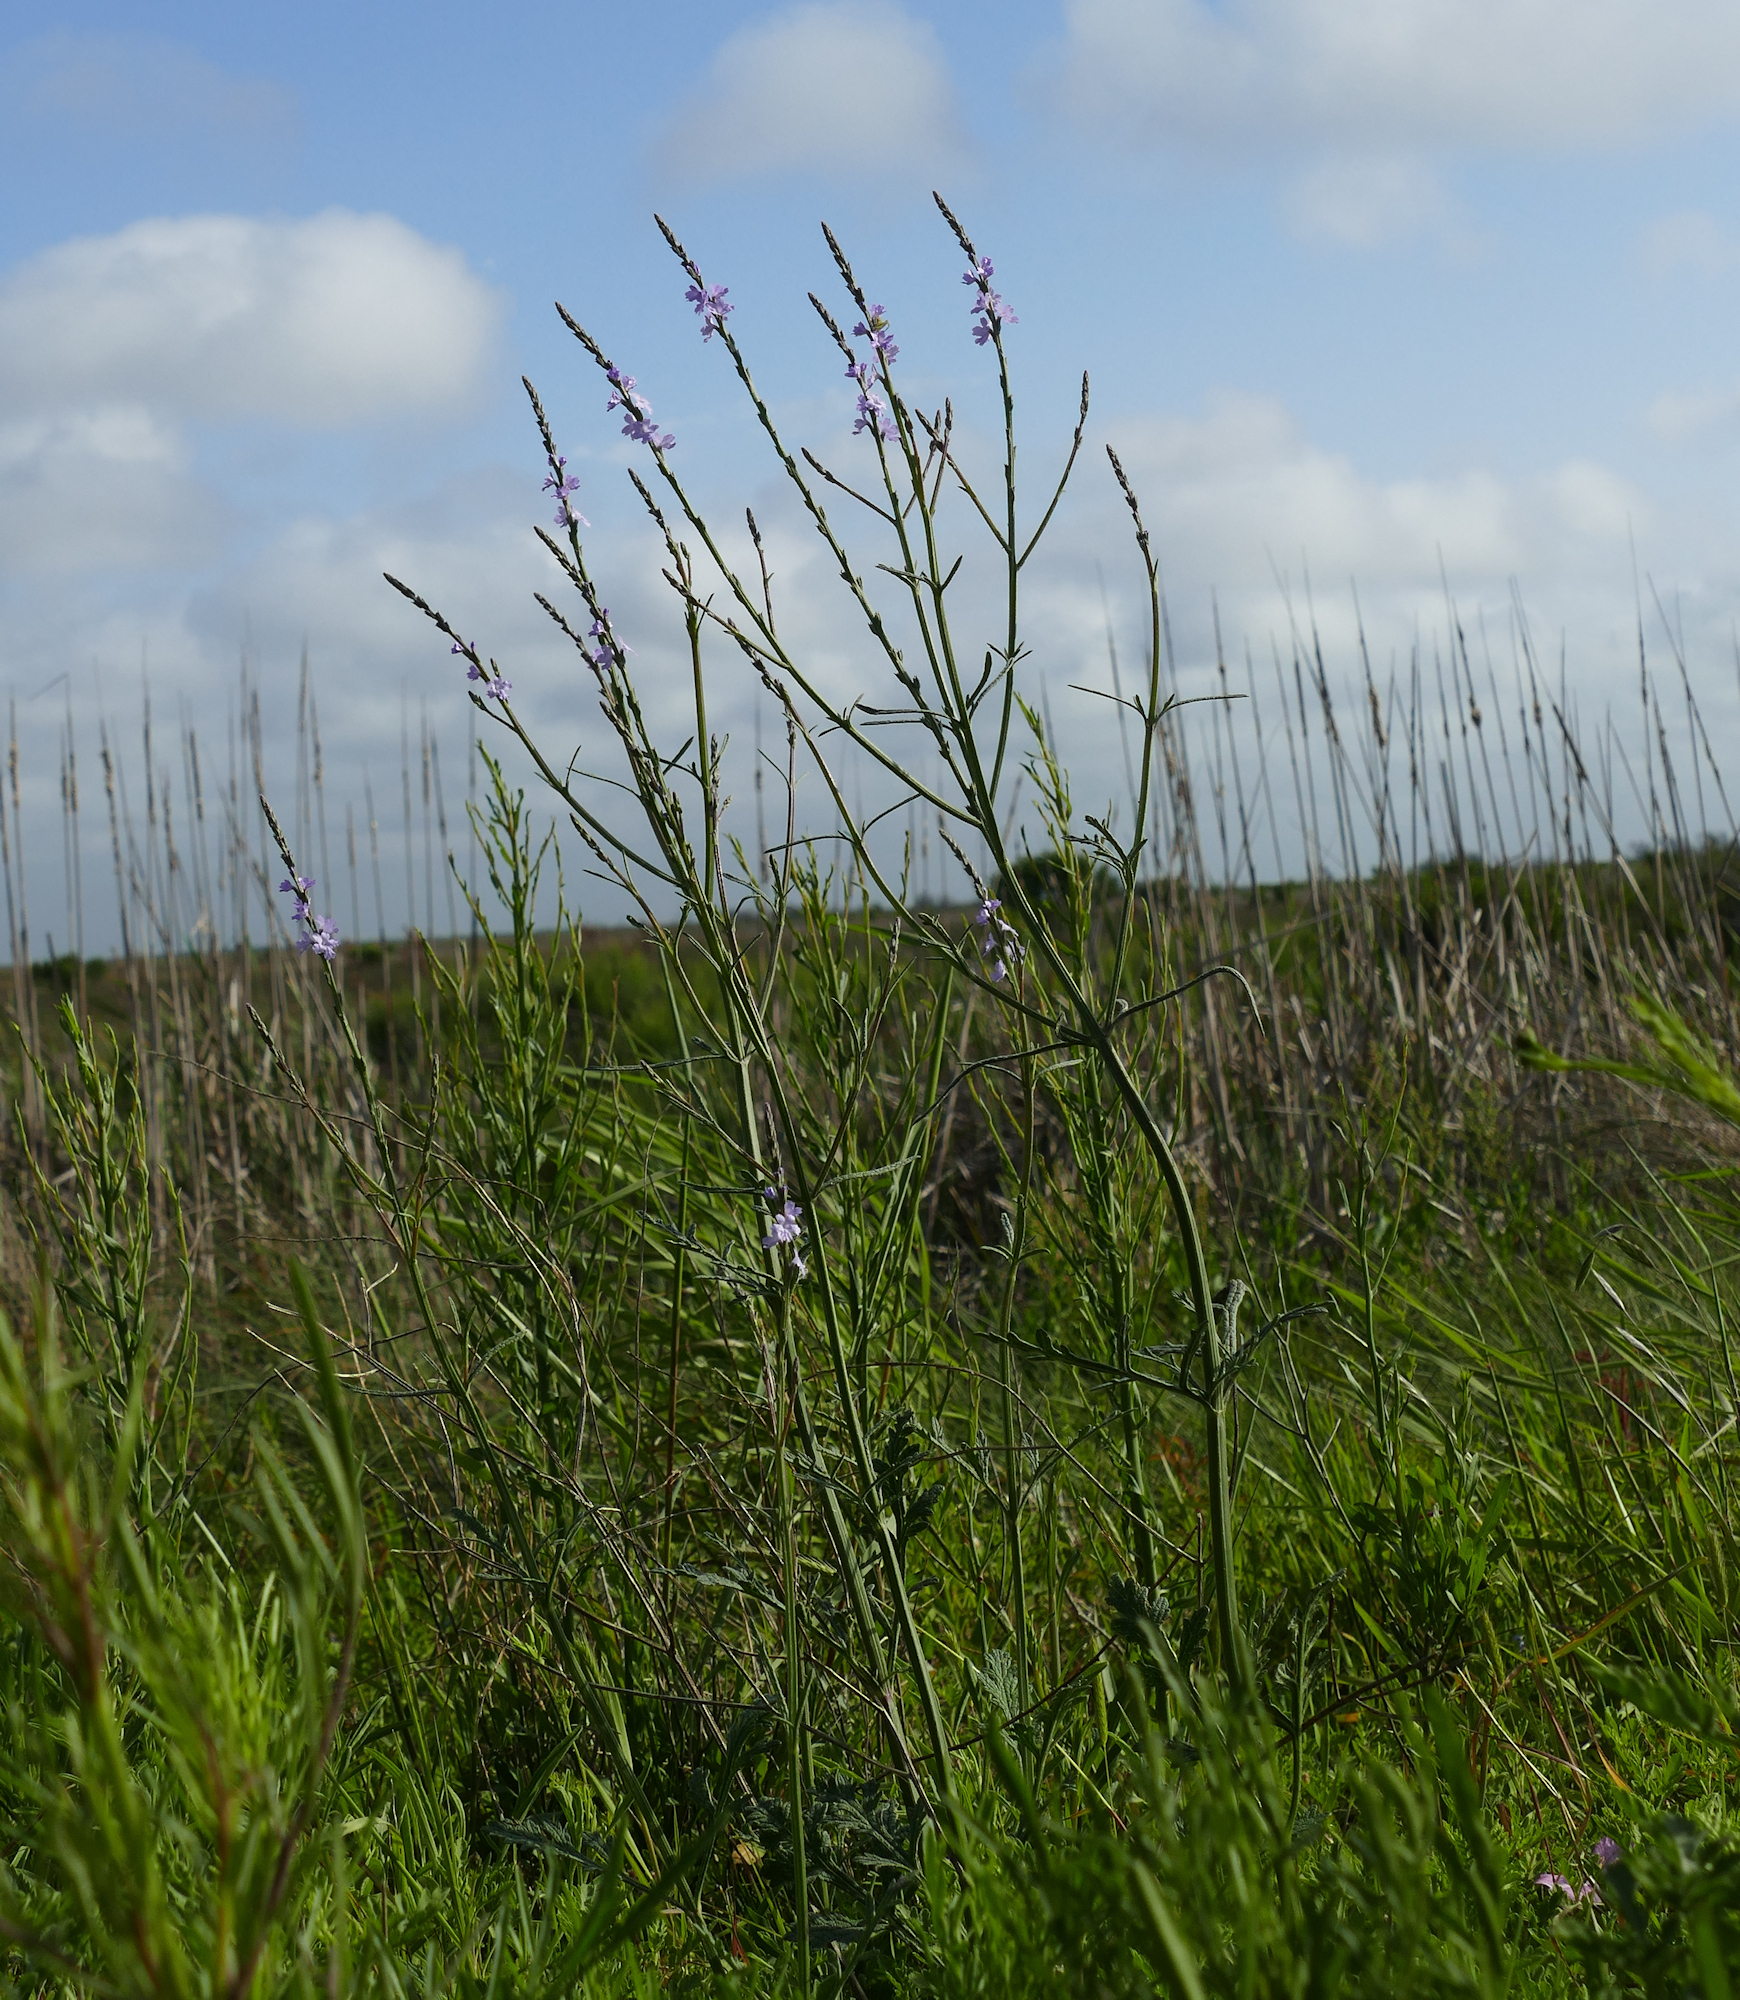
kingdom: Plantae
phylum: Tracheophyta
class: Magnoliopsida
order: Lamiales
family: Verbenaceae
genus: Verbena
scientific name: Verbena xutha
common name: Gulf vervain
